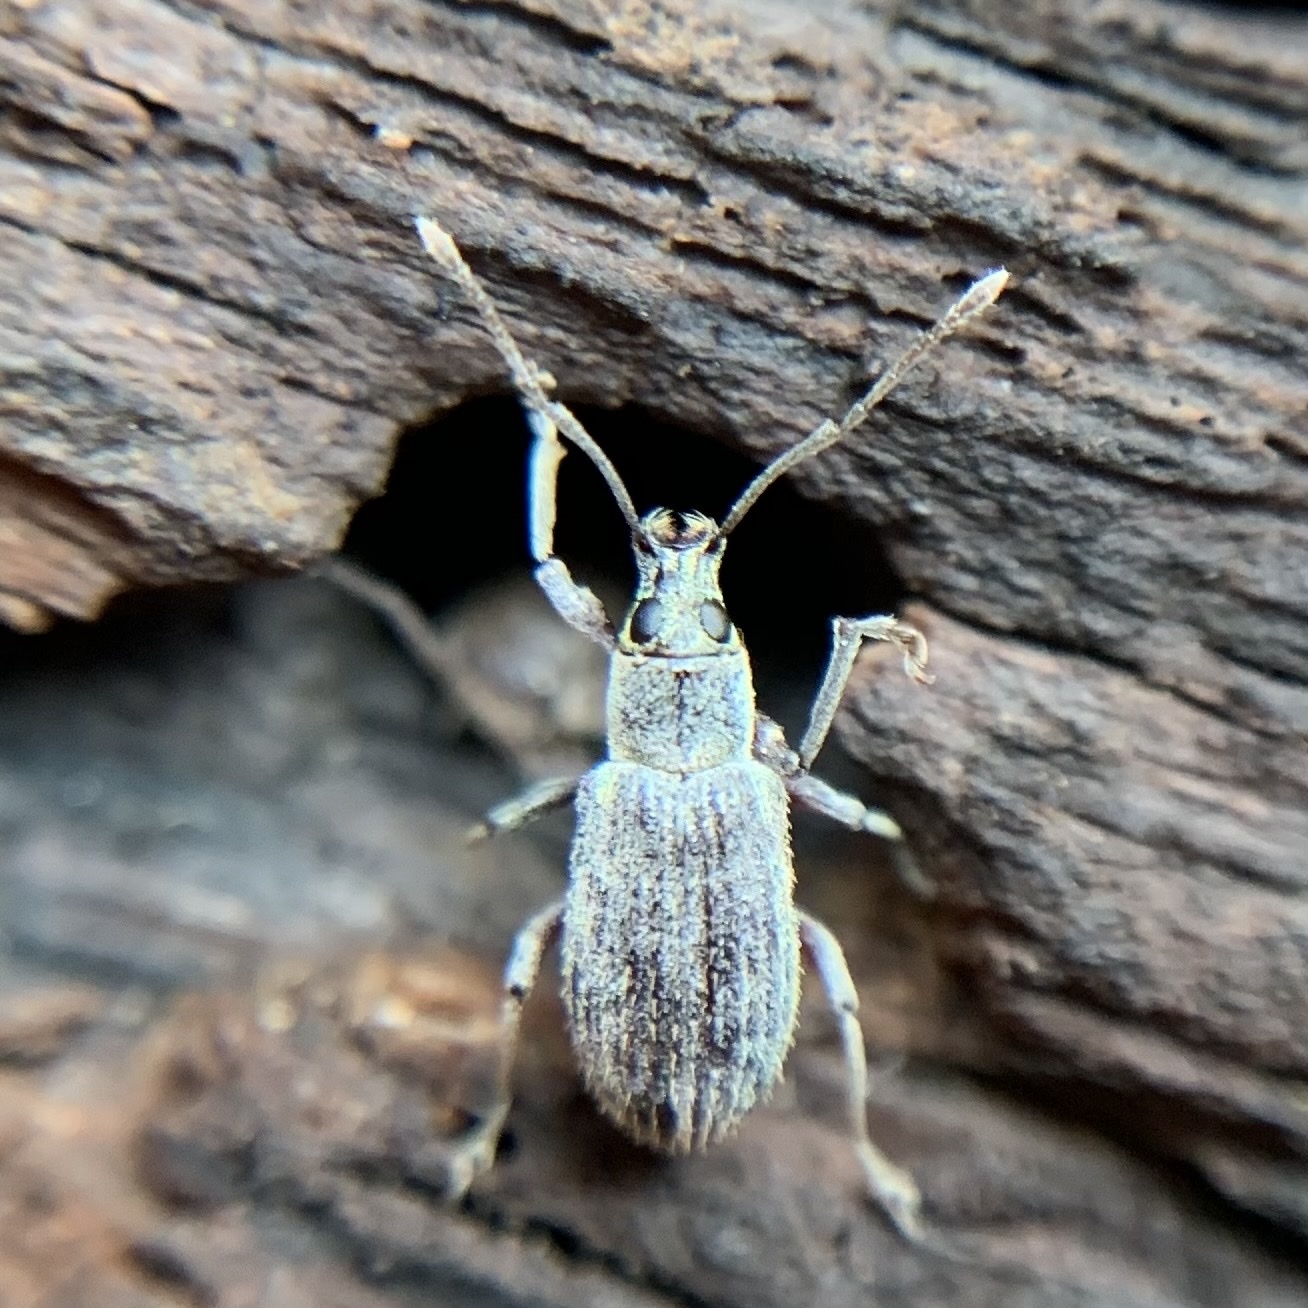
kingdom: Animalia
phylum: Arthropoda
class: Insecta
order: Coleoptera
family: Curculionidae
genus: Cyrtepistomus
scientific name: Cyrtepistomus castaneus
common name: Weevil
